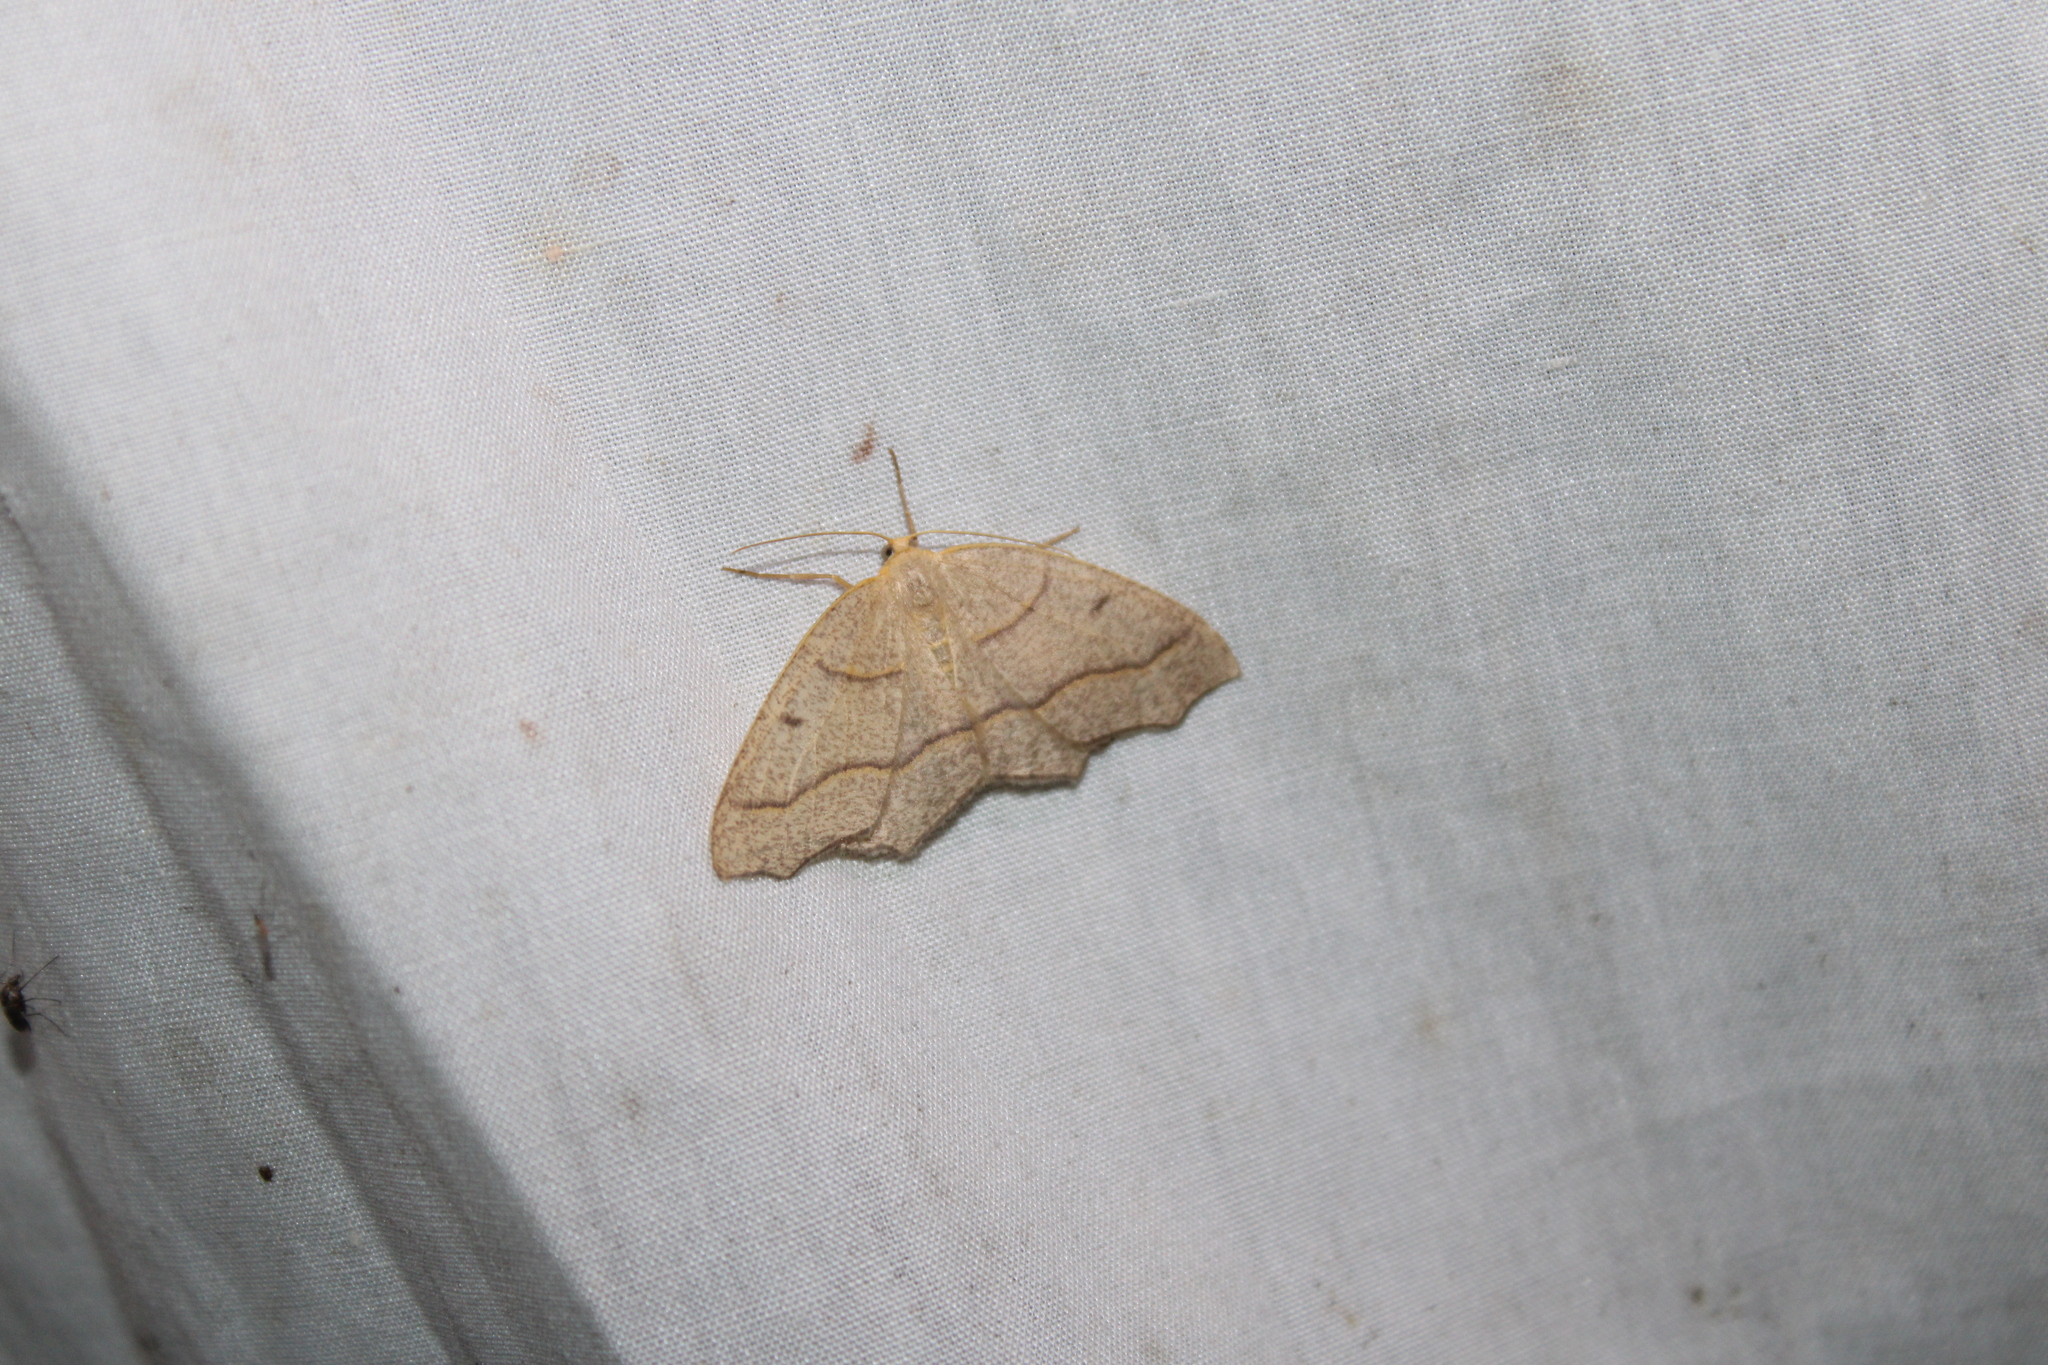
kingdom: Animalia
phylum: Arthropoda
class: Insecta
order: Lepidoptera
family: Geometridae
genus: Lambdina
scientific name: Lambdina fiscellaria
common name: Hemlock looper
